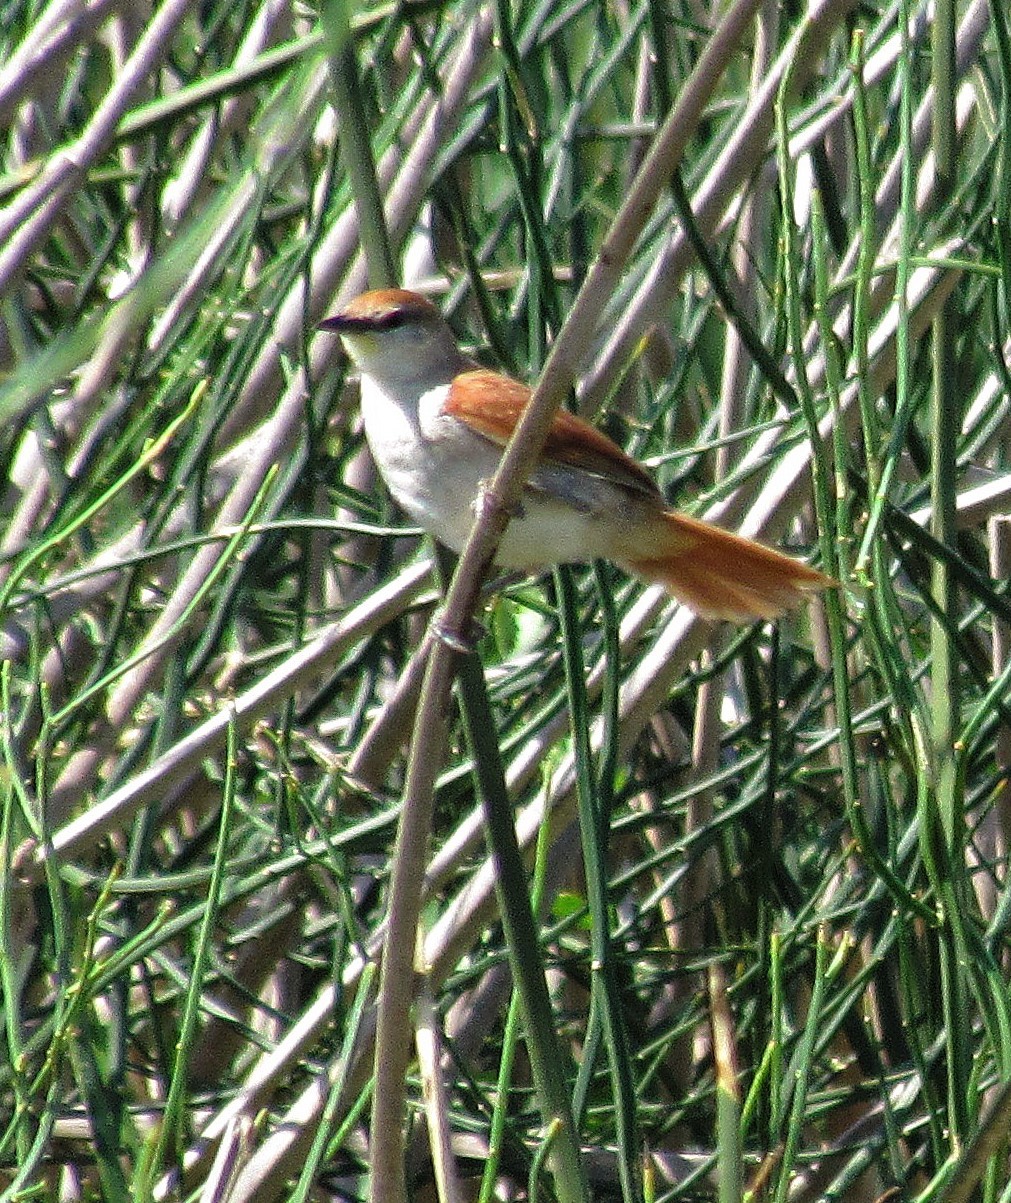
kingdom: Animalia
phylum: Chordata
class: Aves
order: Passeriformes
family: Furnariidae
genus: Certhiaxis
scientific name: Certhiaxis cinnamomeus
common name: Yellow-chinned spinetail
